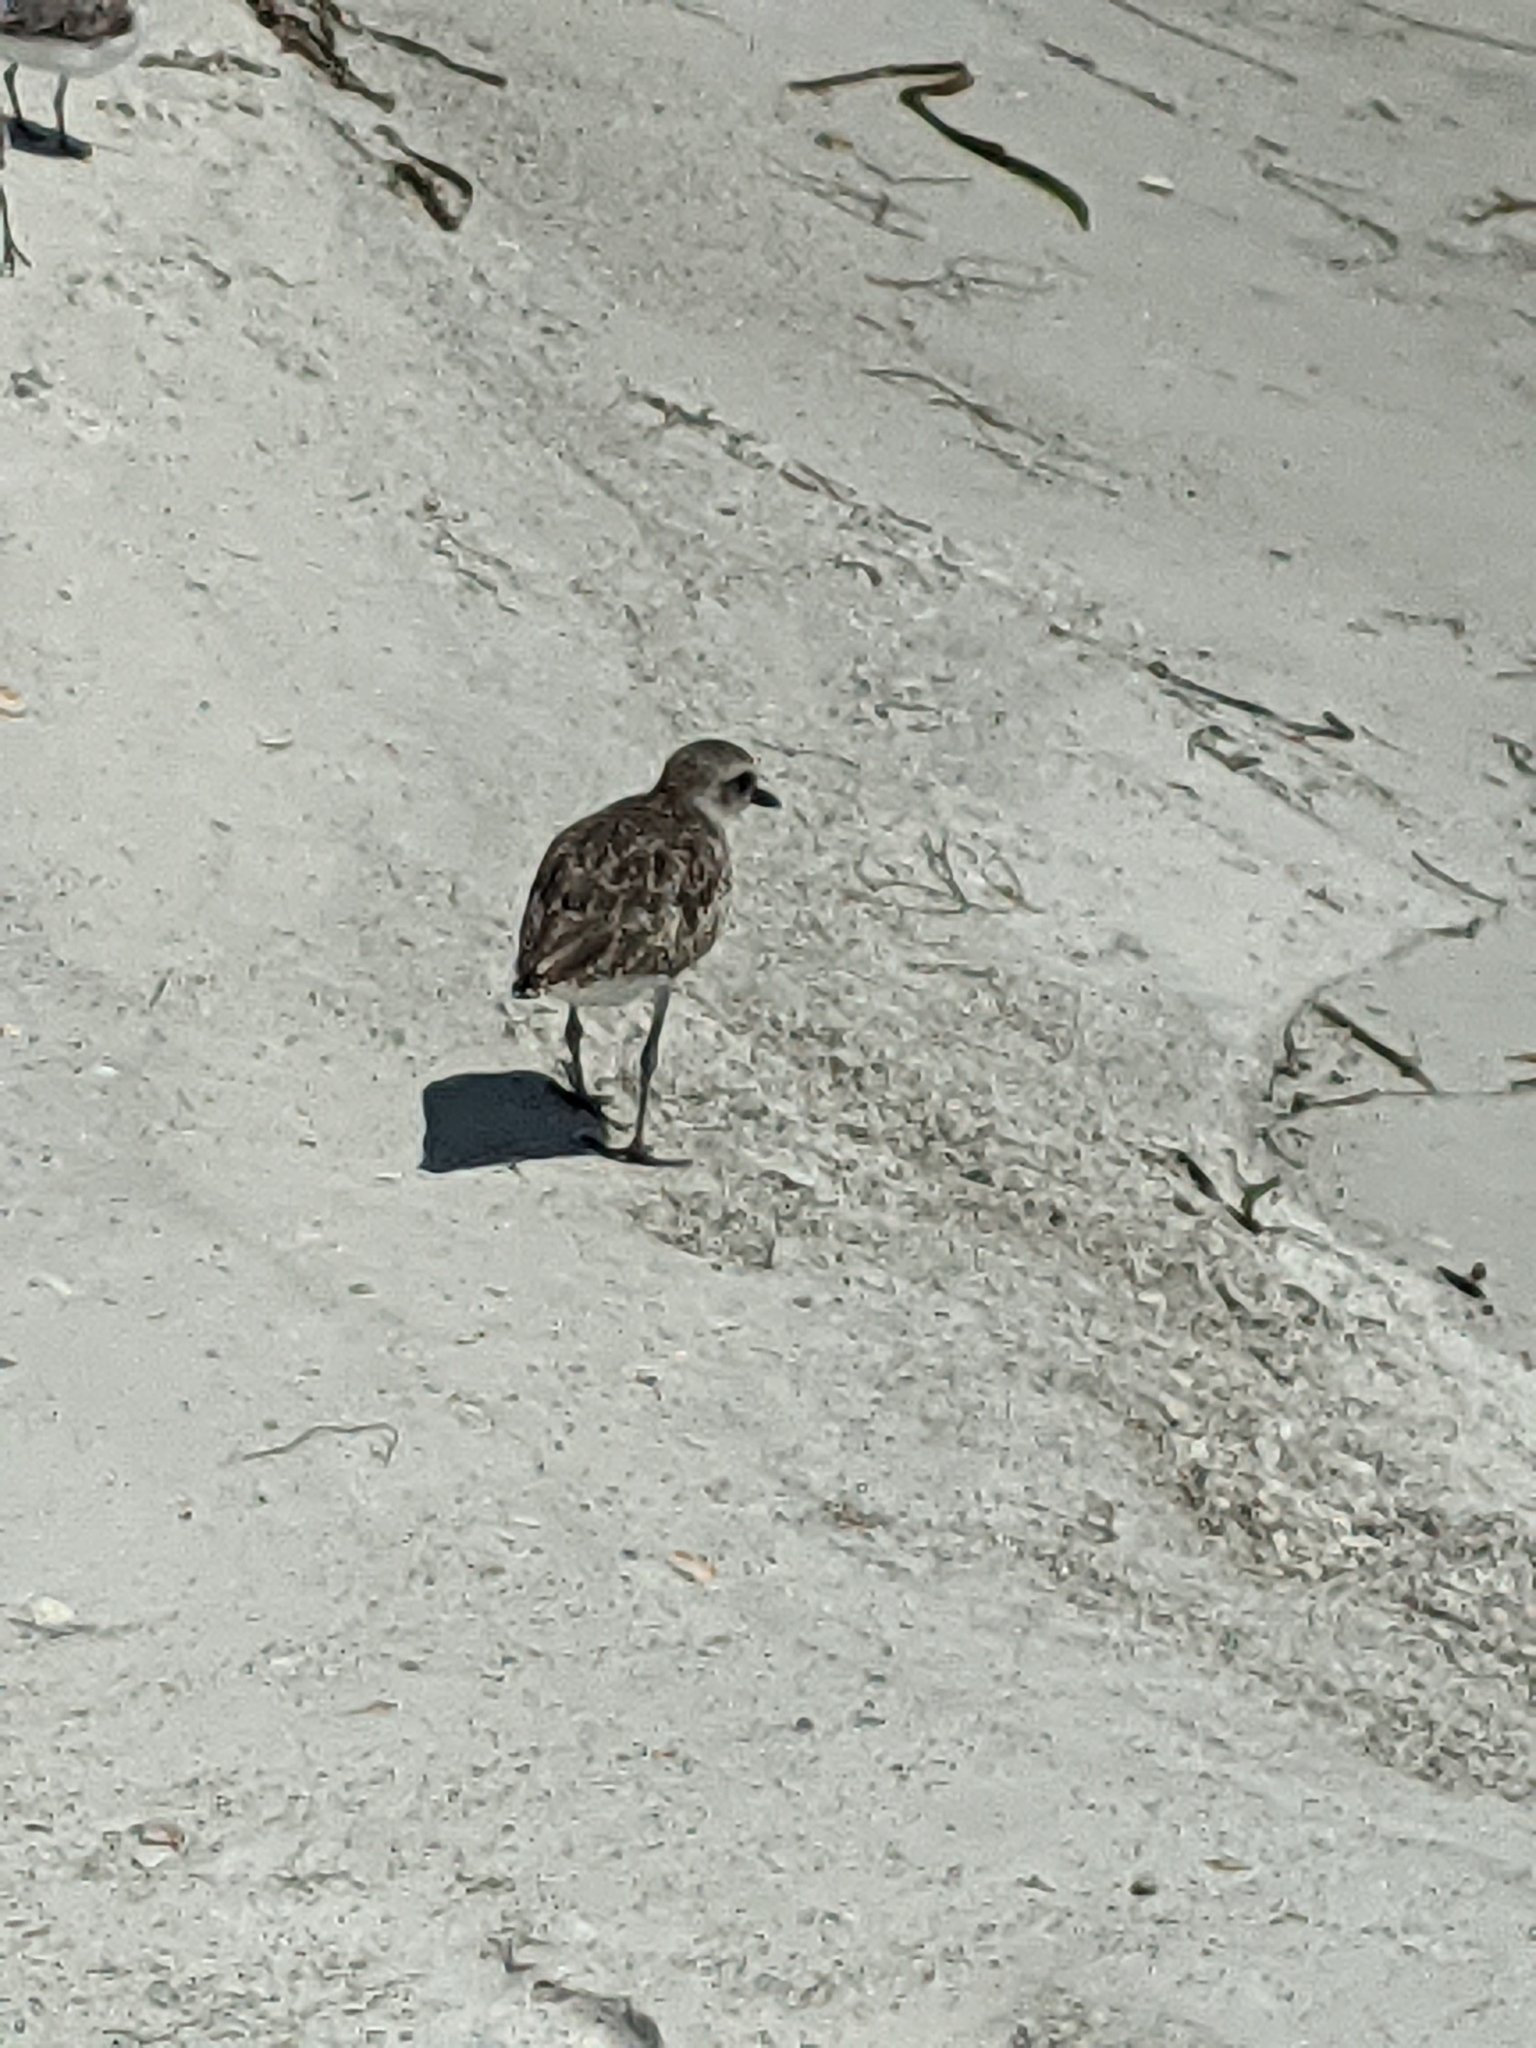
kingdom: Animalia
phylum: Chordata
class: Aves
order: Charadriiformes
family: Charadriidae
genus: Pluvialis
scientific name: Pluvialis squatarola
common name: Grey plover
